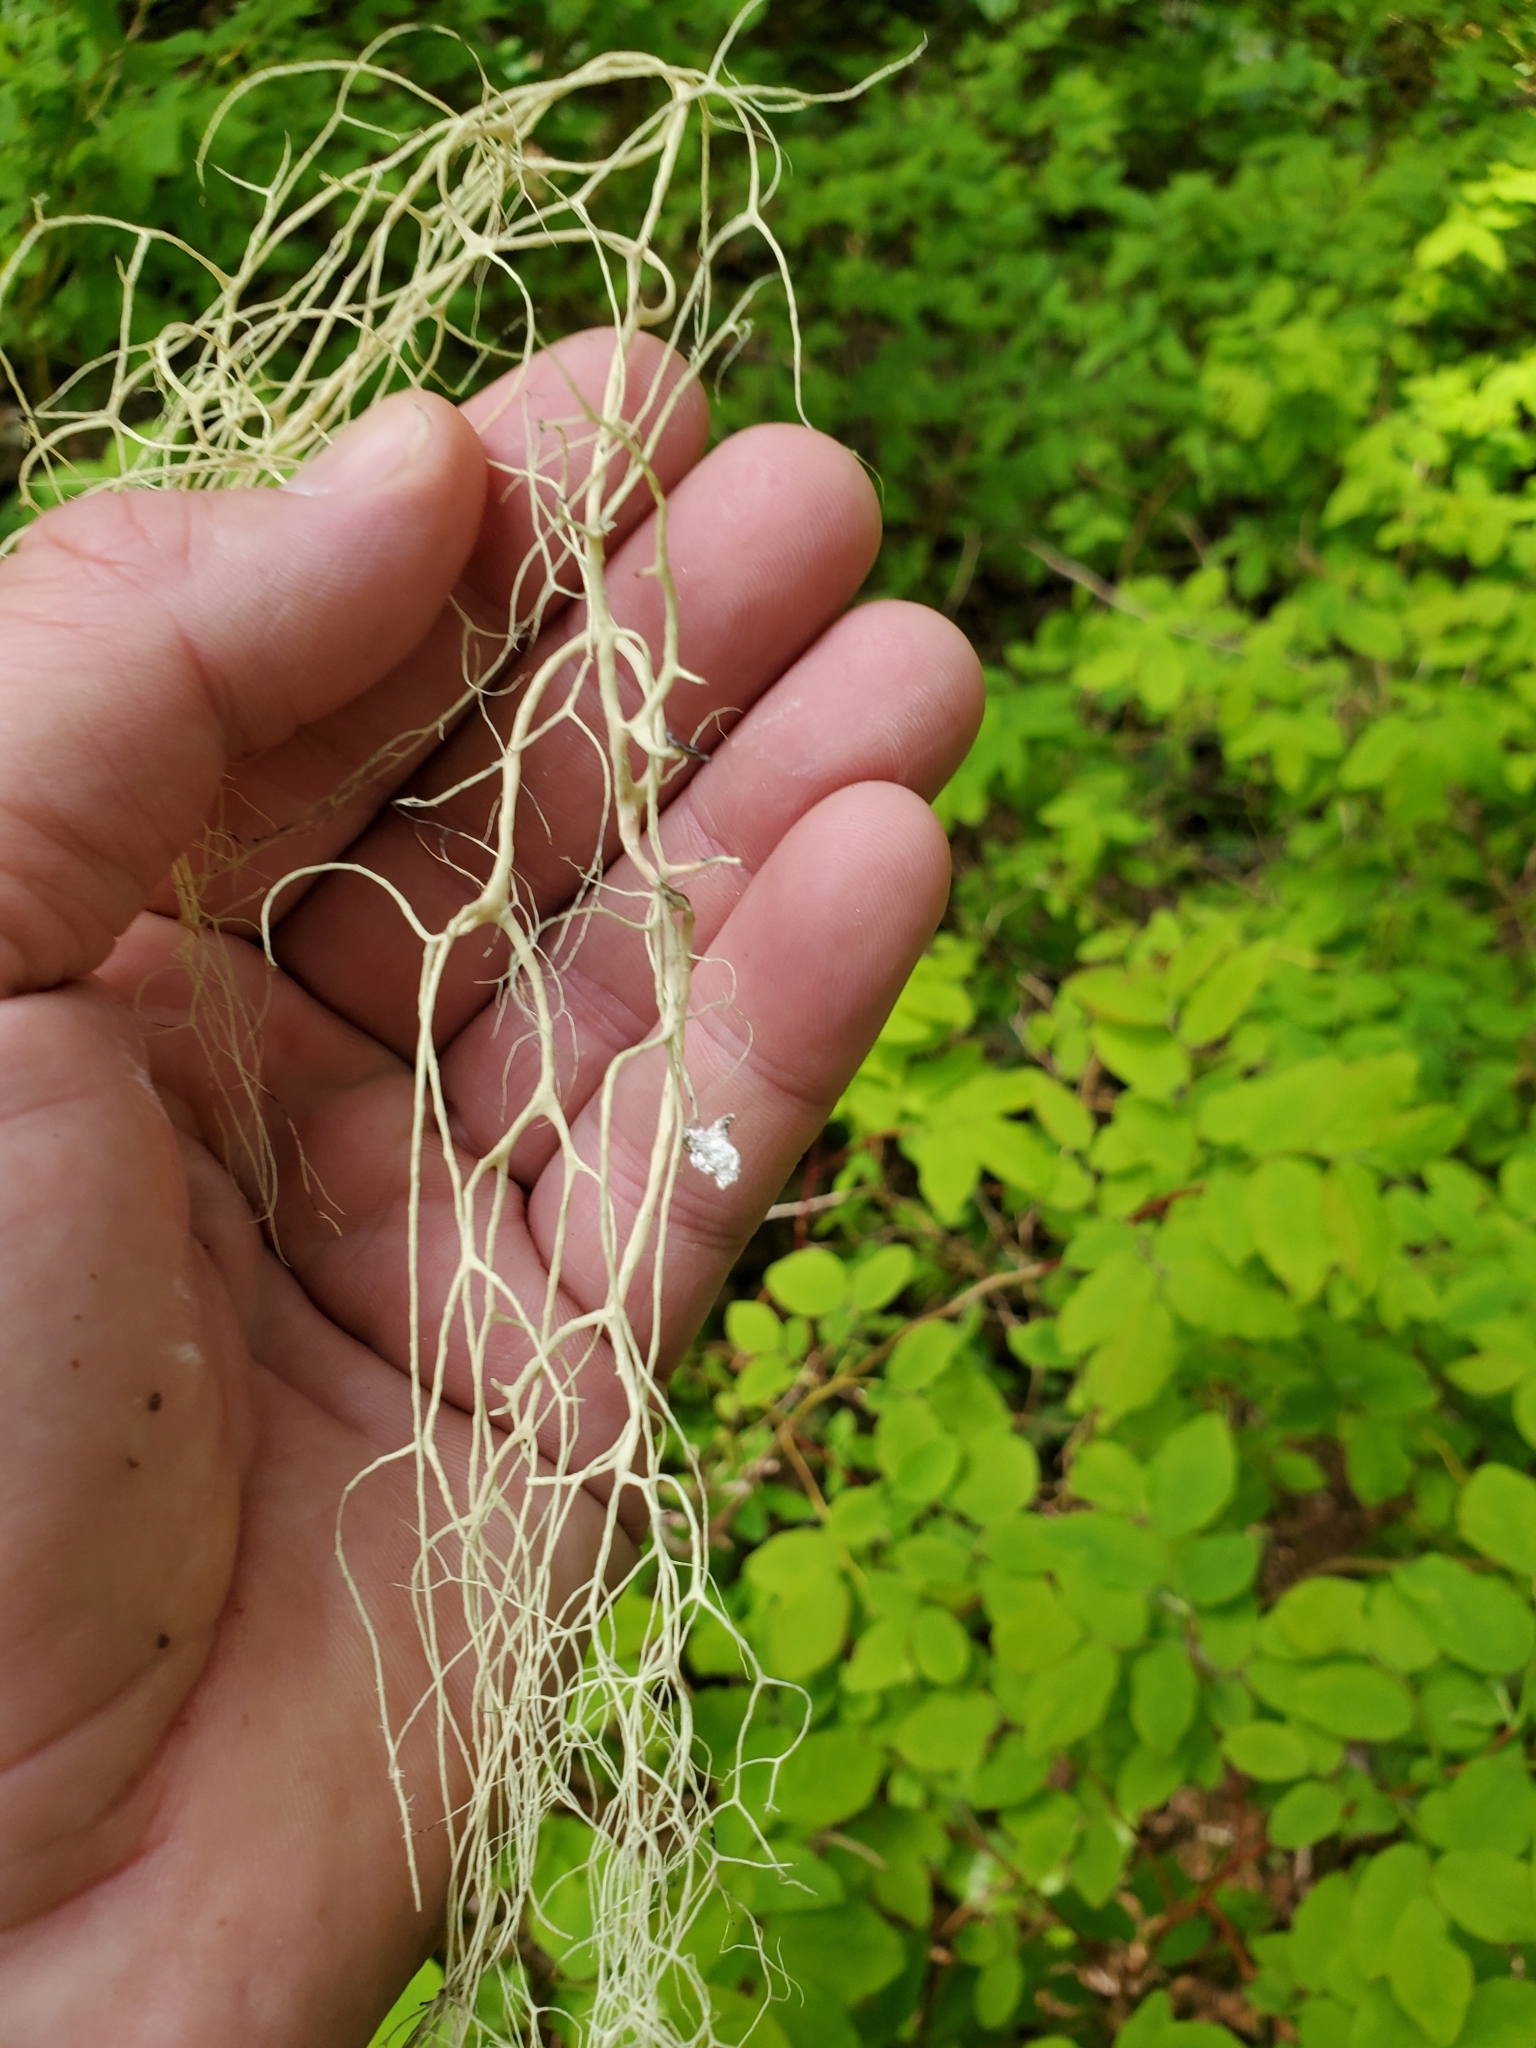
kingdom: Fungi
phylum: Ascomycota
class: Lecanoromycetes
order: Lecanorales
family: Parmeliaceae
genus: Alectoria
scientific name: Alectoria sarmentosa
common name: Witch's hair
